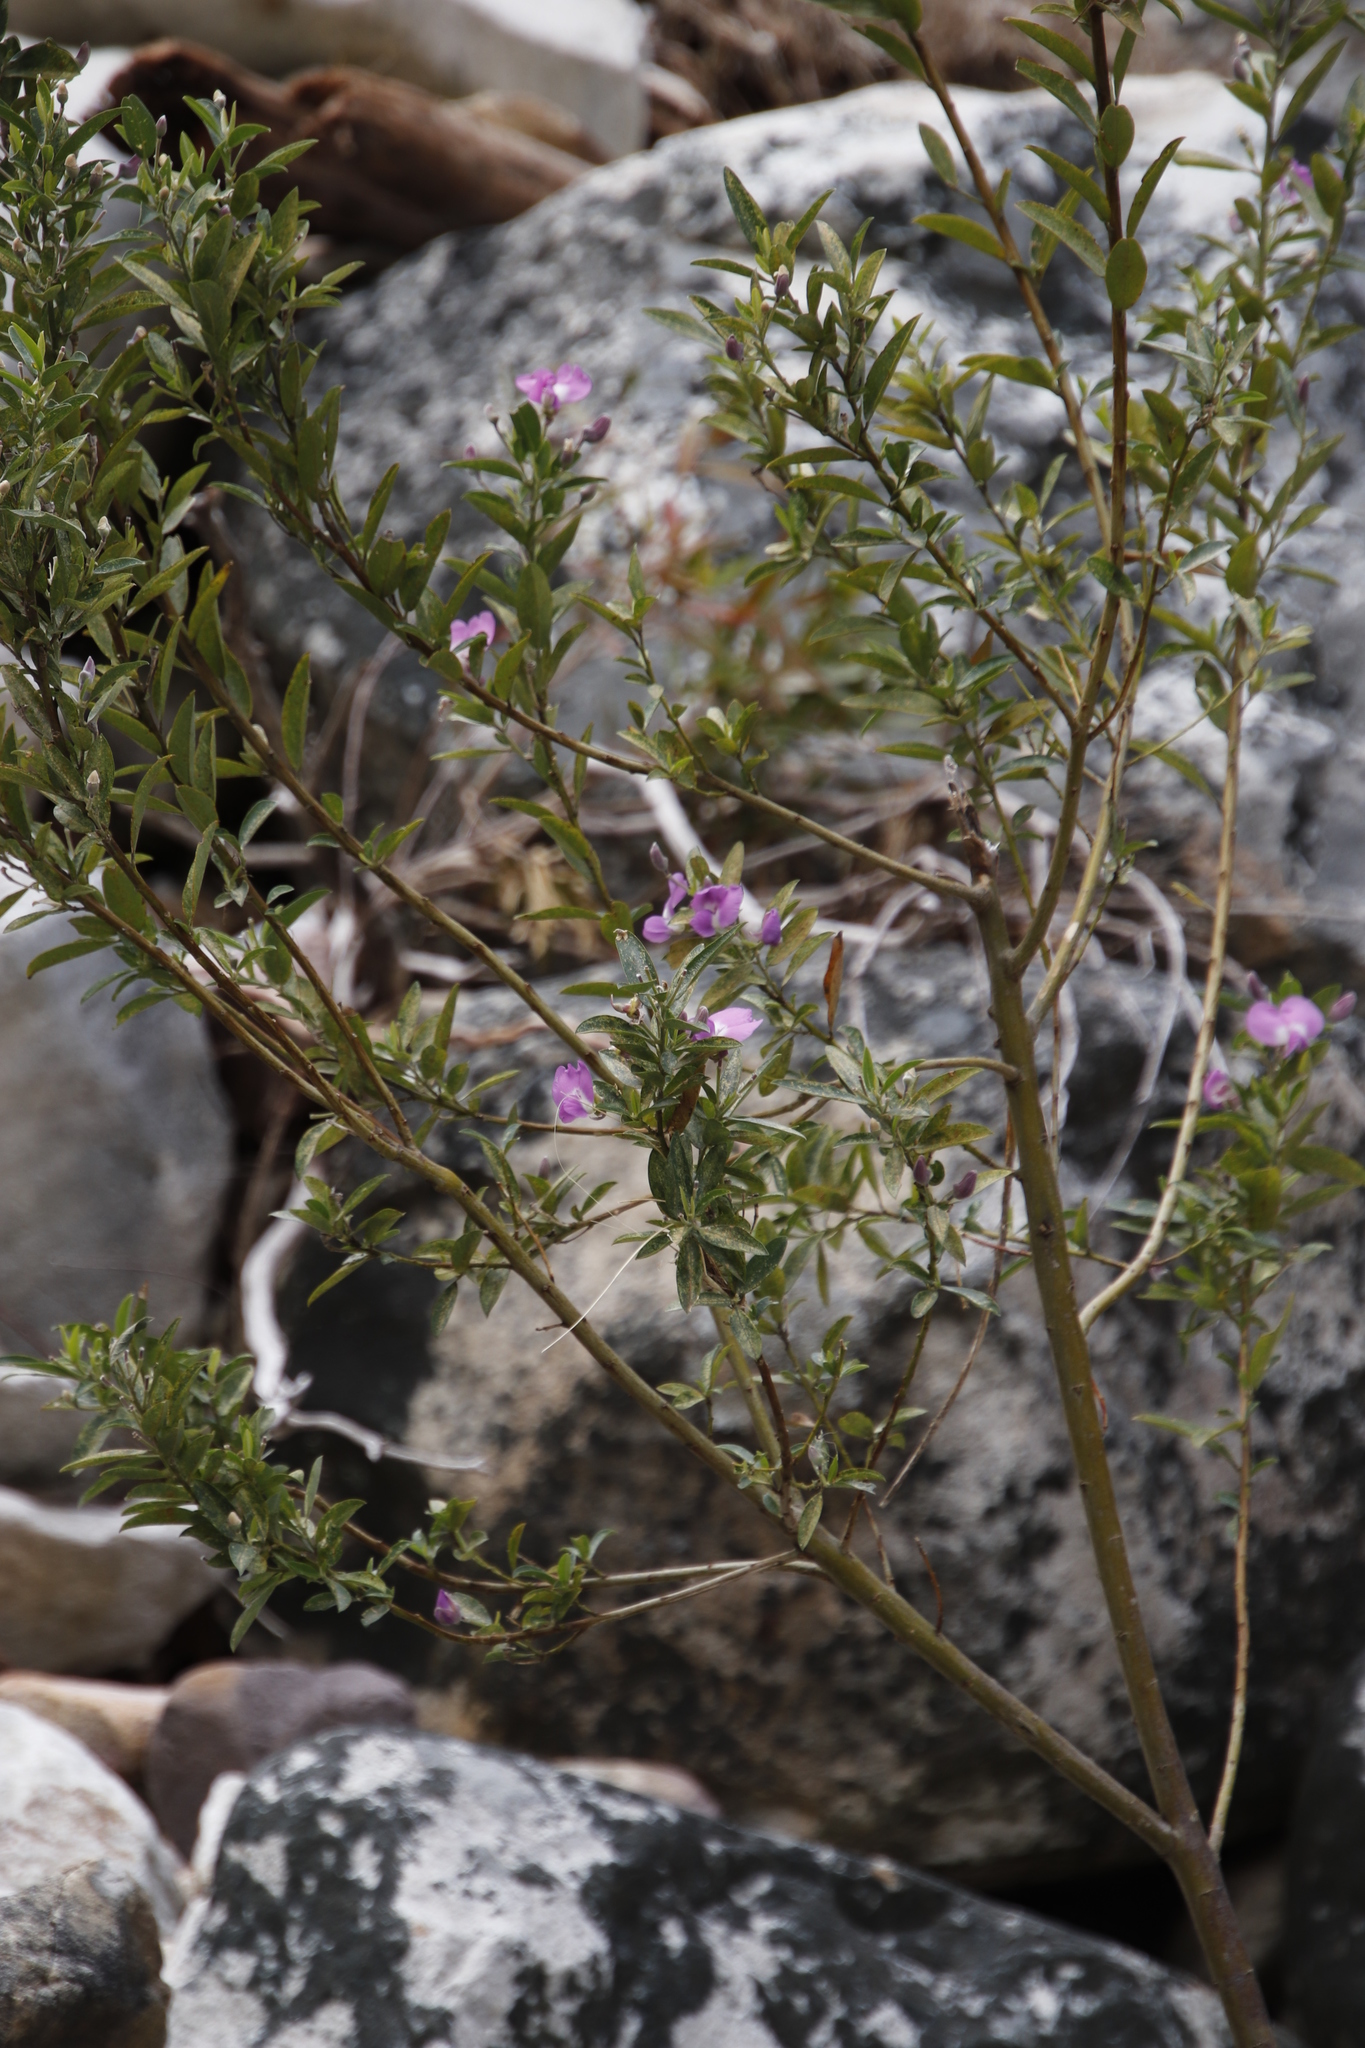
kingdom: Plantae
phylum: Tracheophyta
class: Magnoliopsida
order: Fabales
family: Fabaceae
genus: Podalyria
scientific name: Podalyria calyptrata
